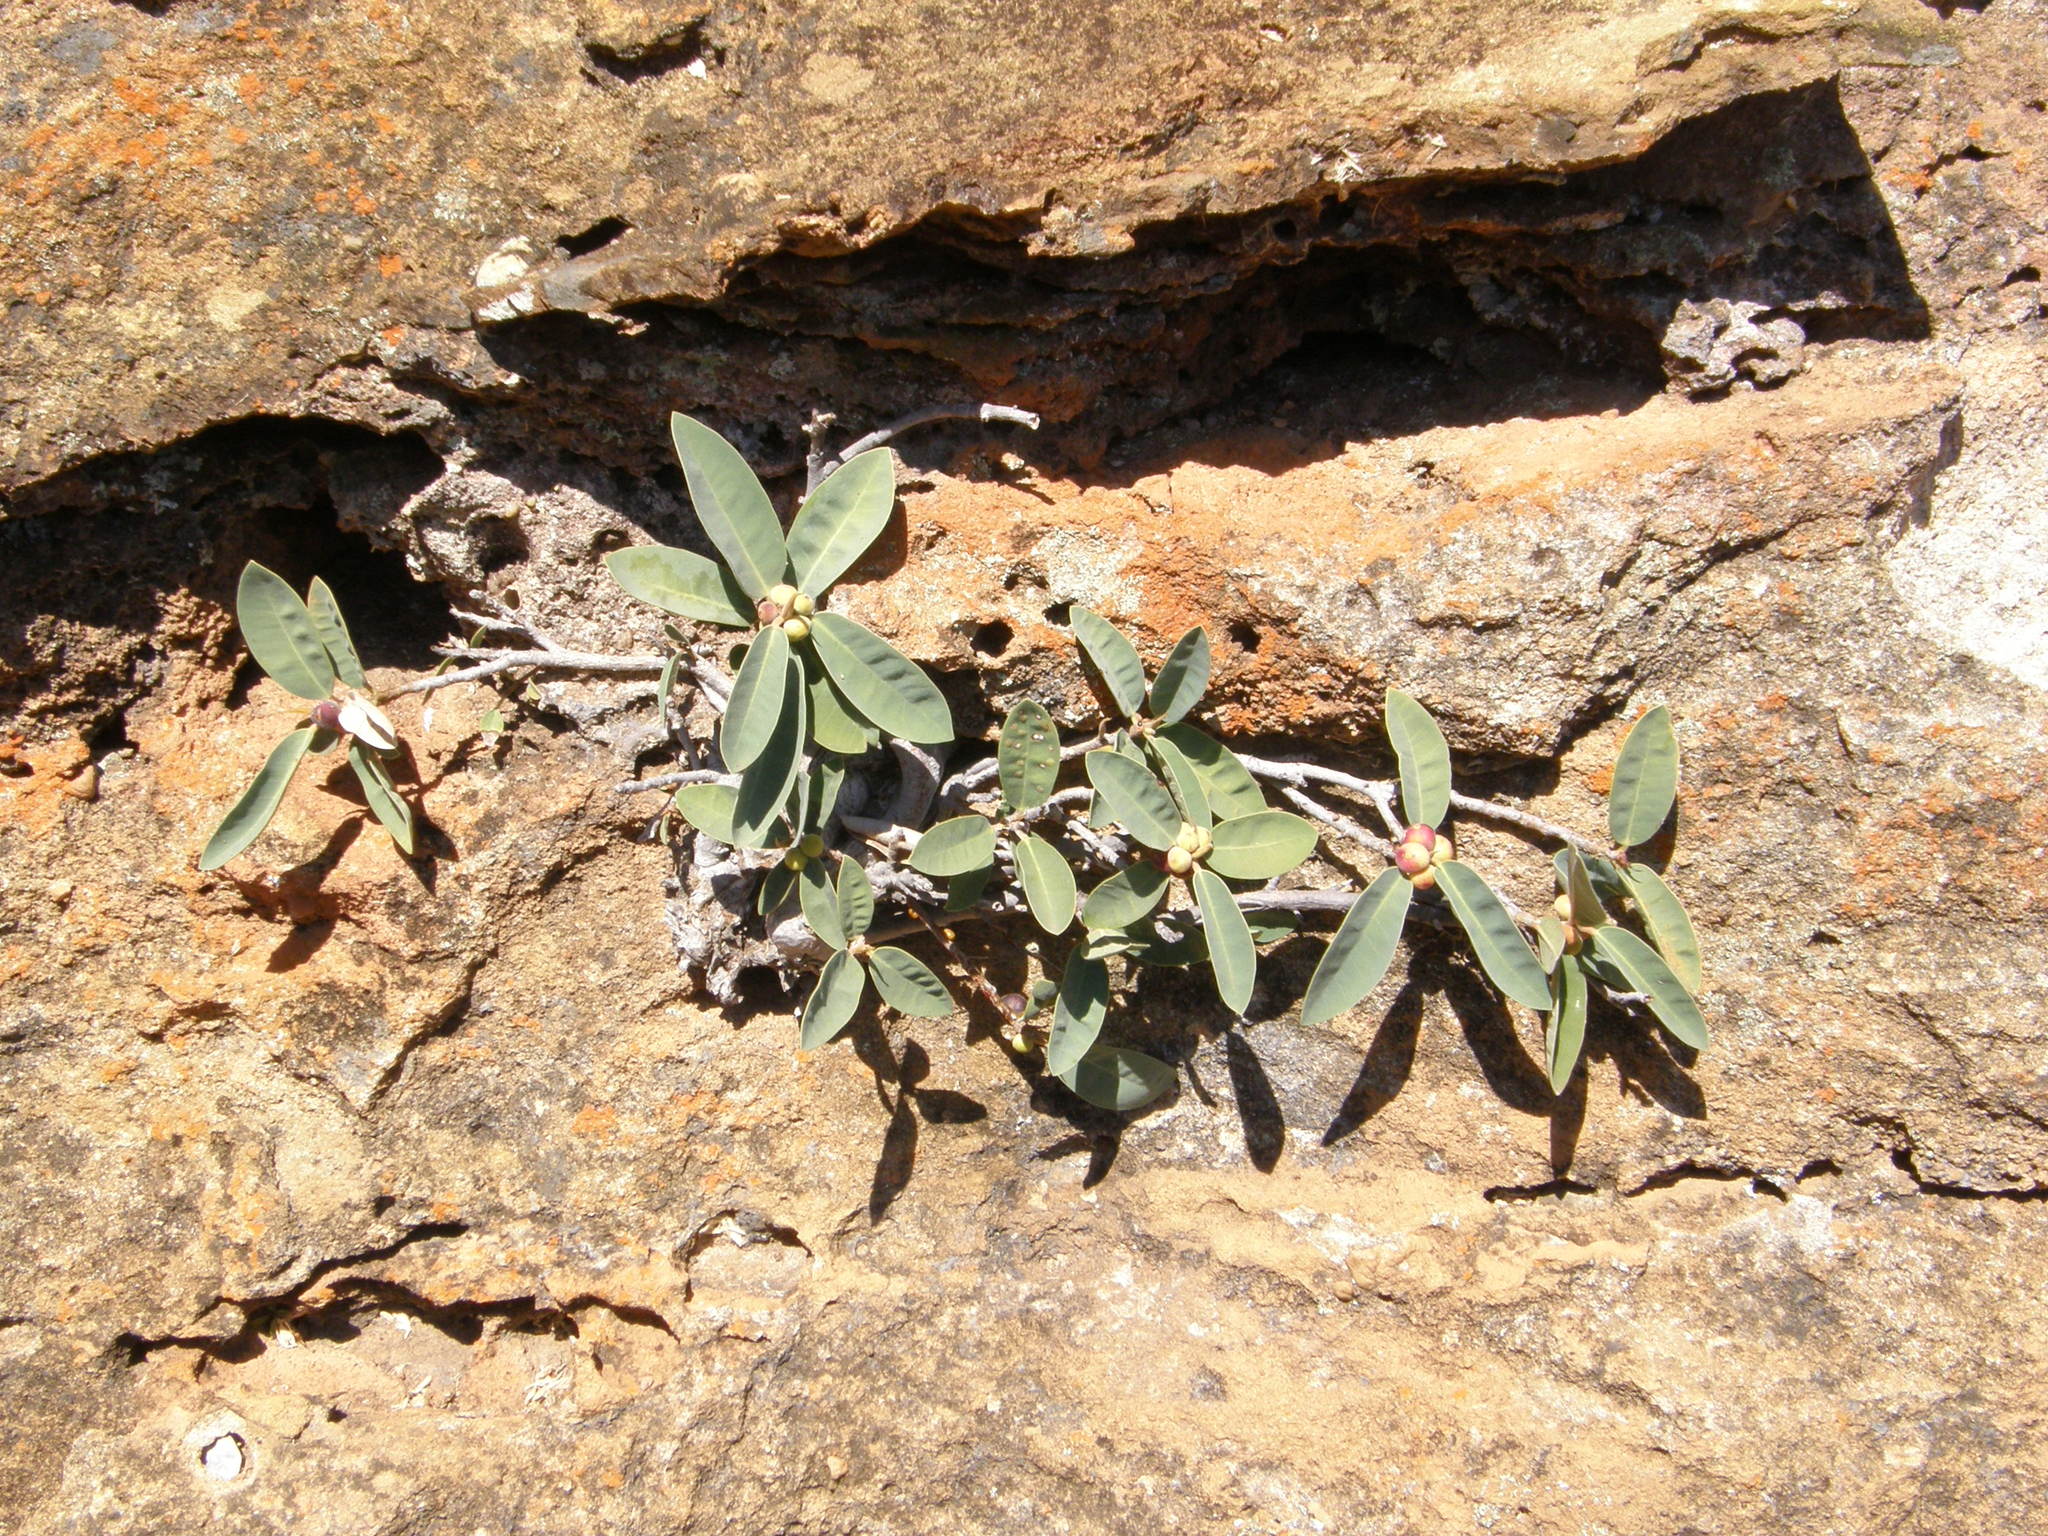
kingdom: Plantae
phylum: Tracheophyta
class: Magnoliopsida
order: Rosales
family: Moraceae
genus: Ficus
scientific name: Ficus menabeensis
